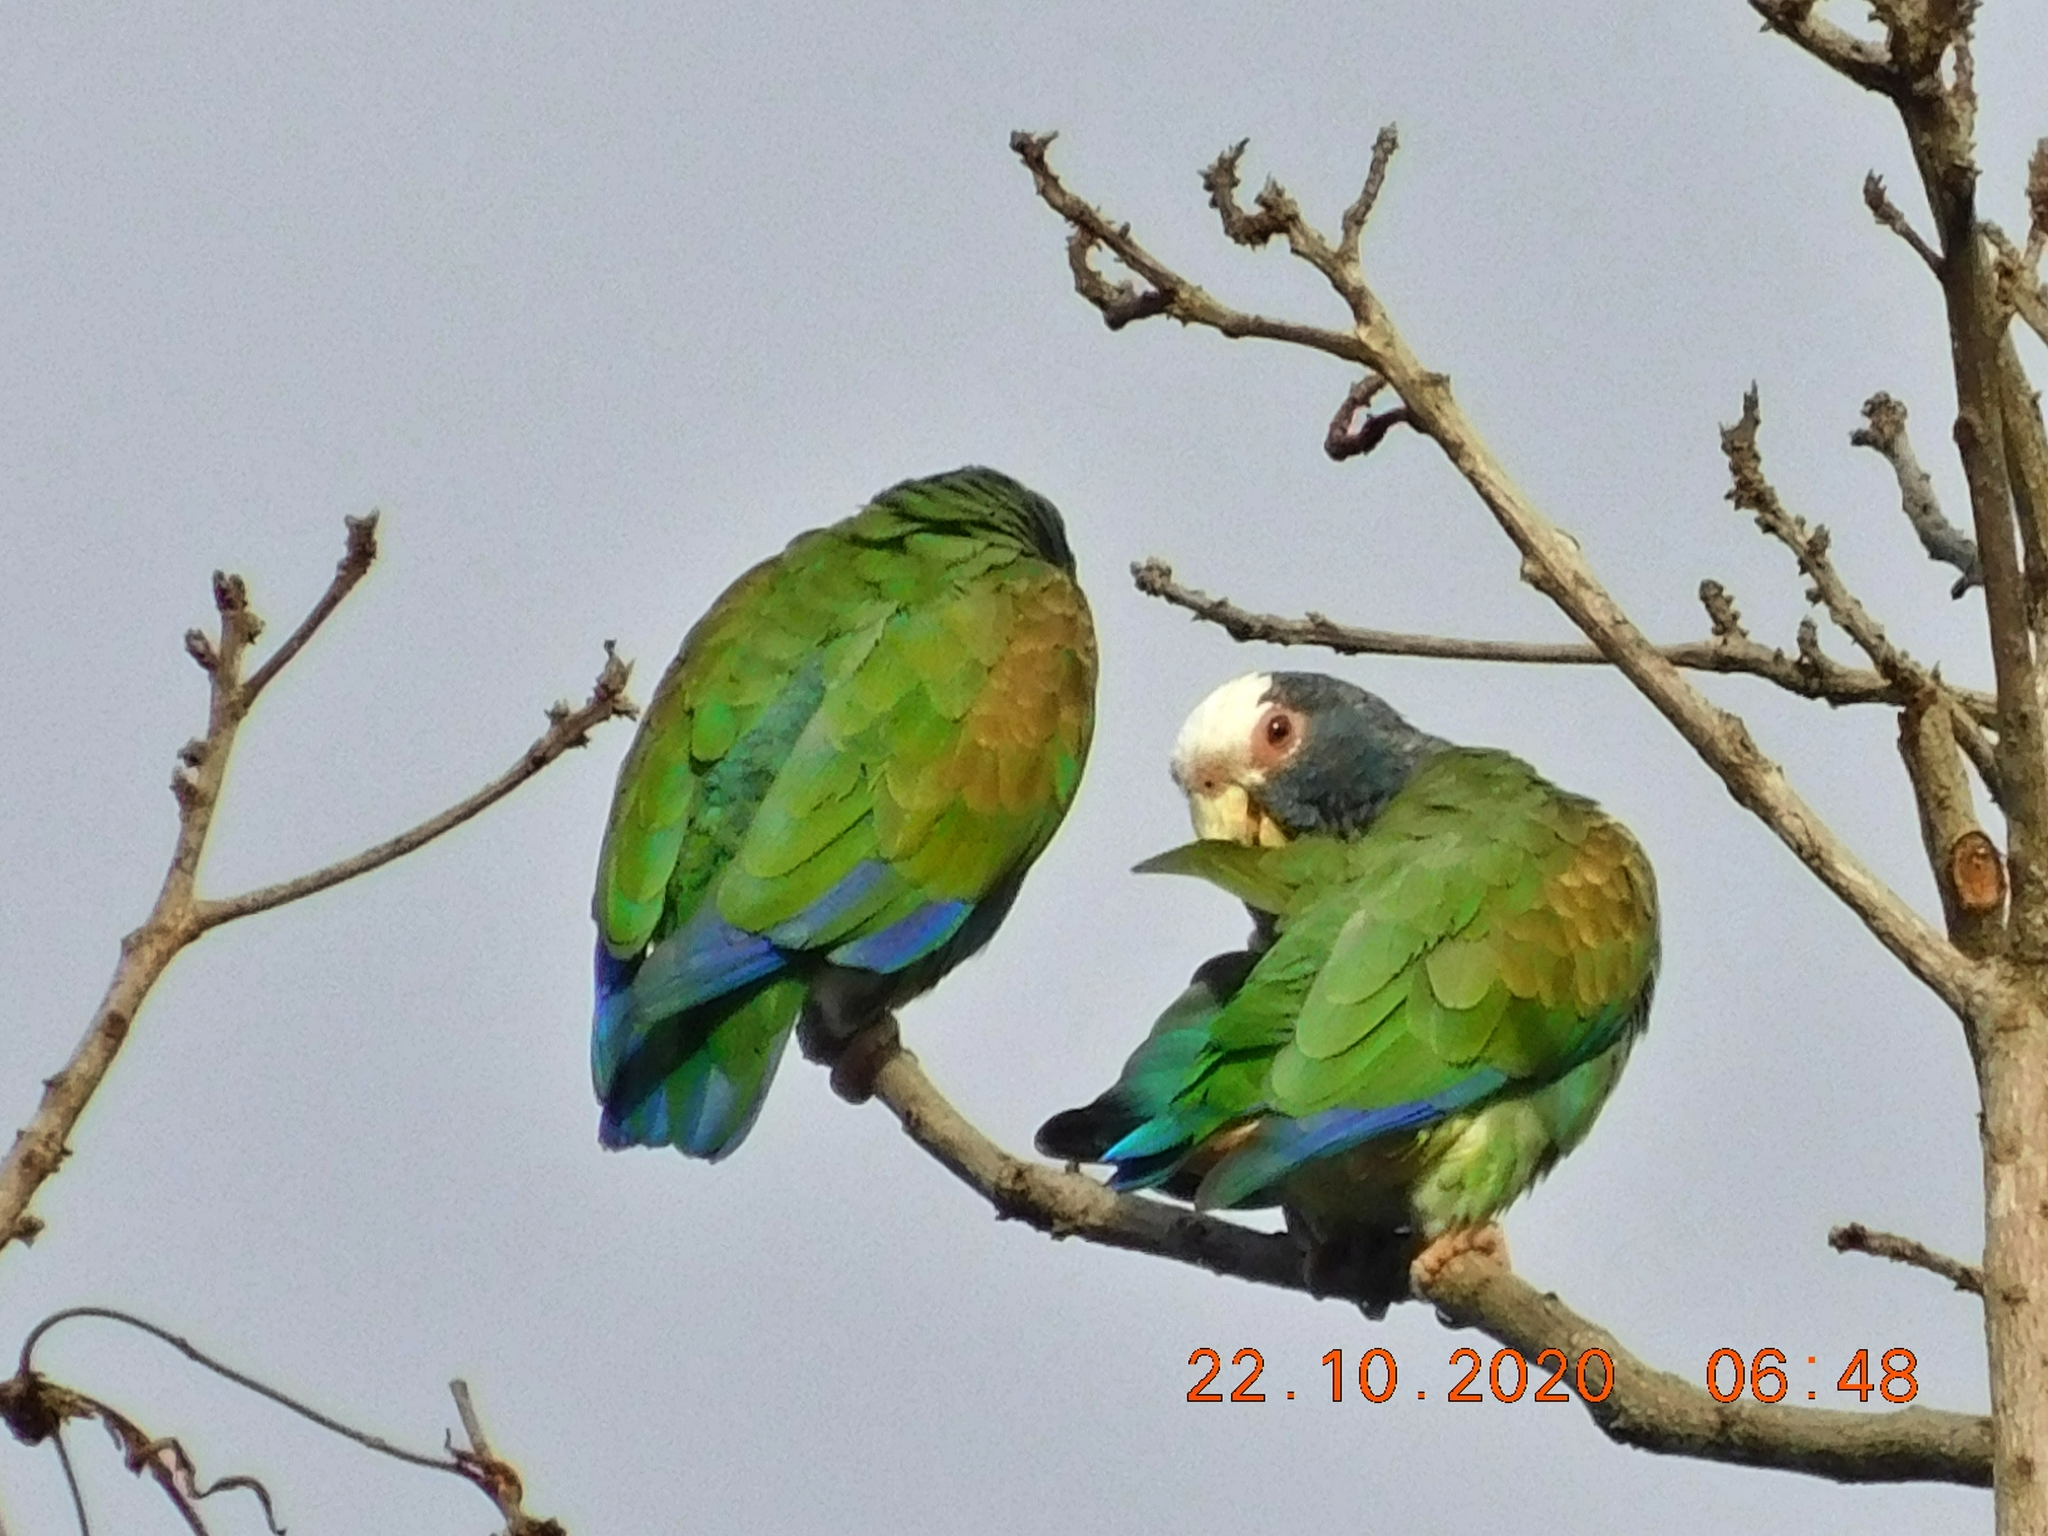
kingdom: Animalia
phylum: Chordata
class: Aves
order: Psittaciformes
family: Psittacidae
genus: Pionus
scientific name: Pionus senilis
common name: White-crowned parrot
